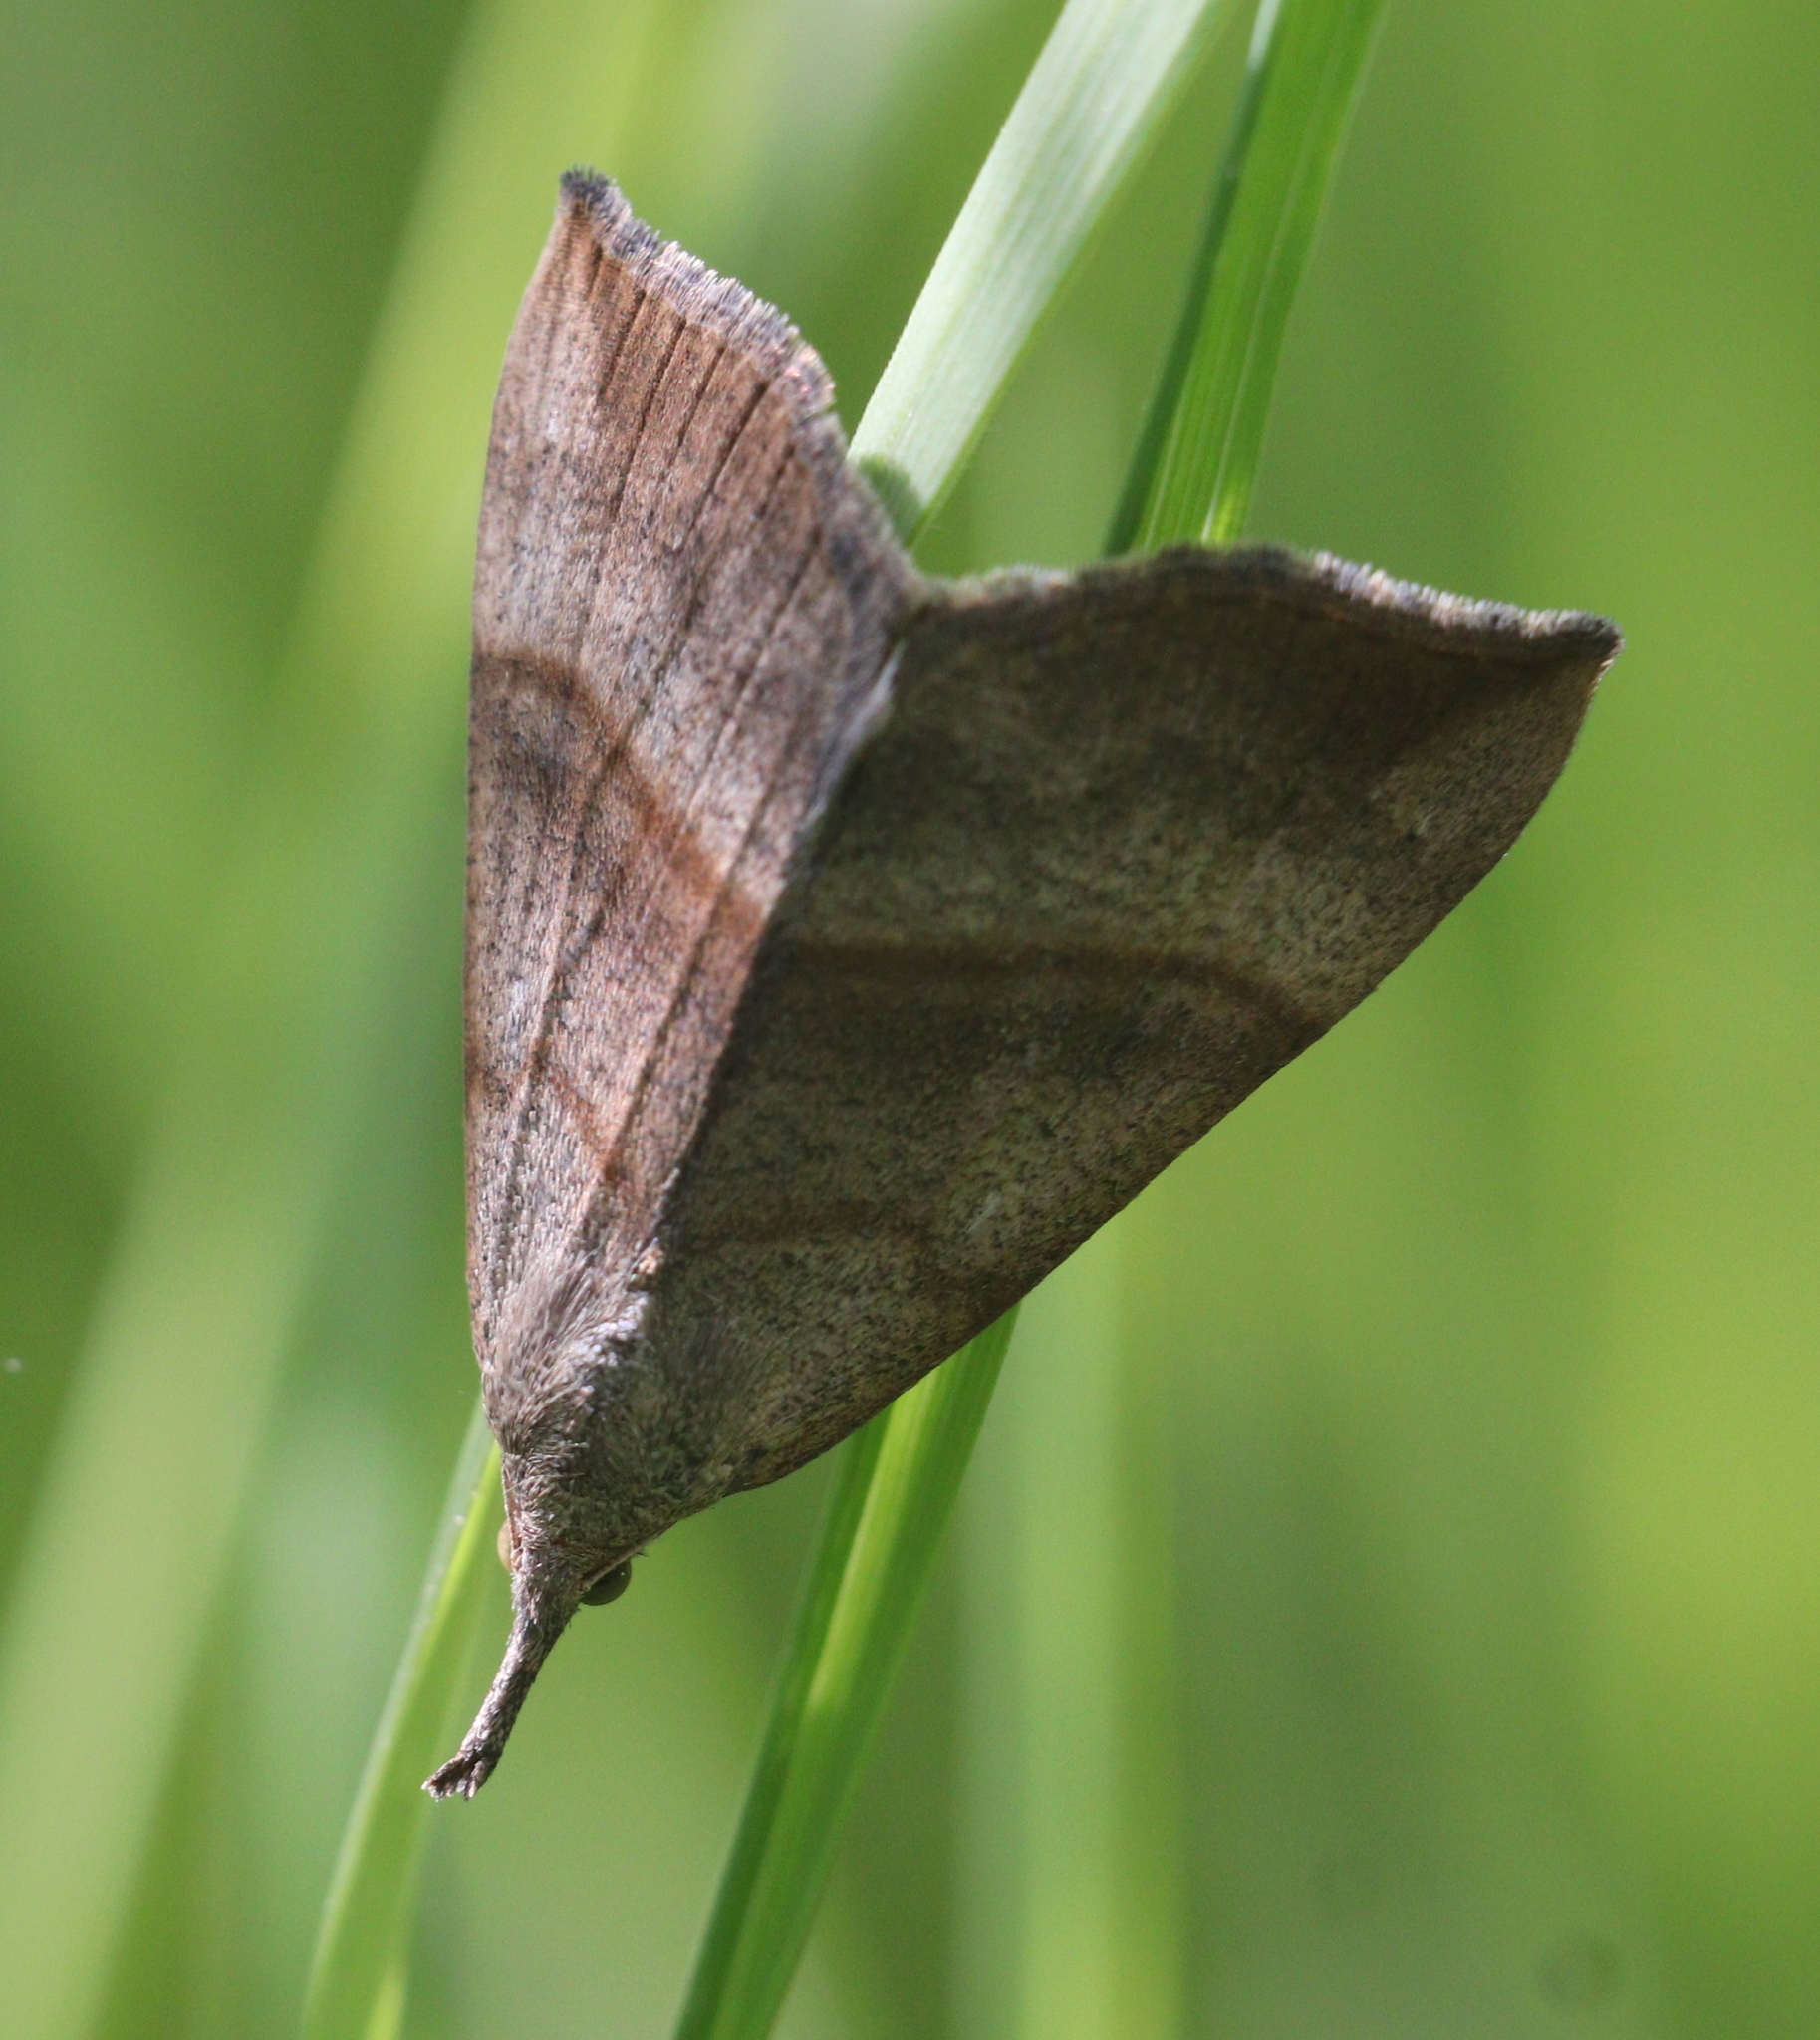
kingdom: Animalia
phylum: Arthropoda
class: Insecta
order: Lepidoptera
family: Erebidae
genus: Hypena
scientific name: Hypena proboscidalis
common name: Snout
